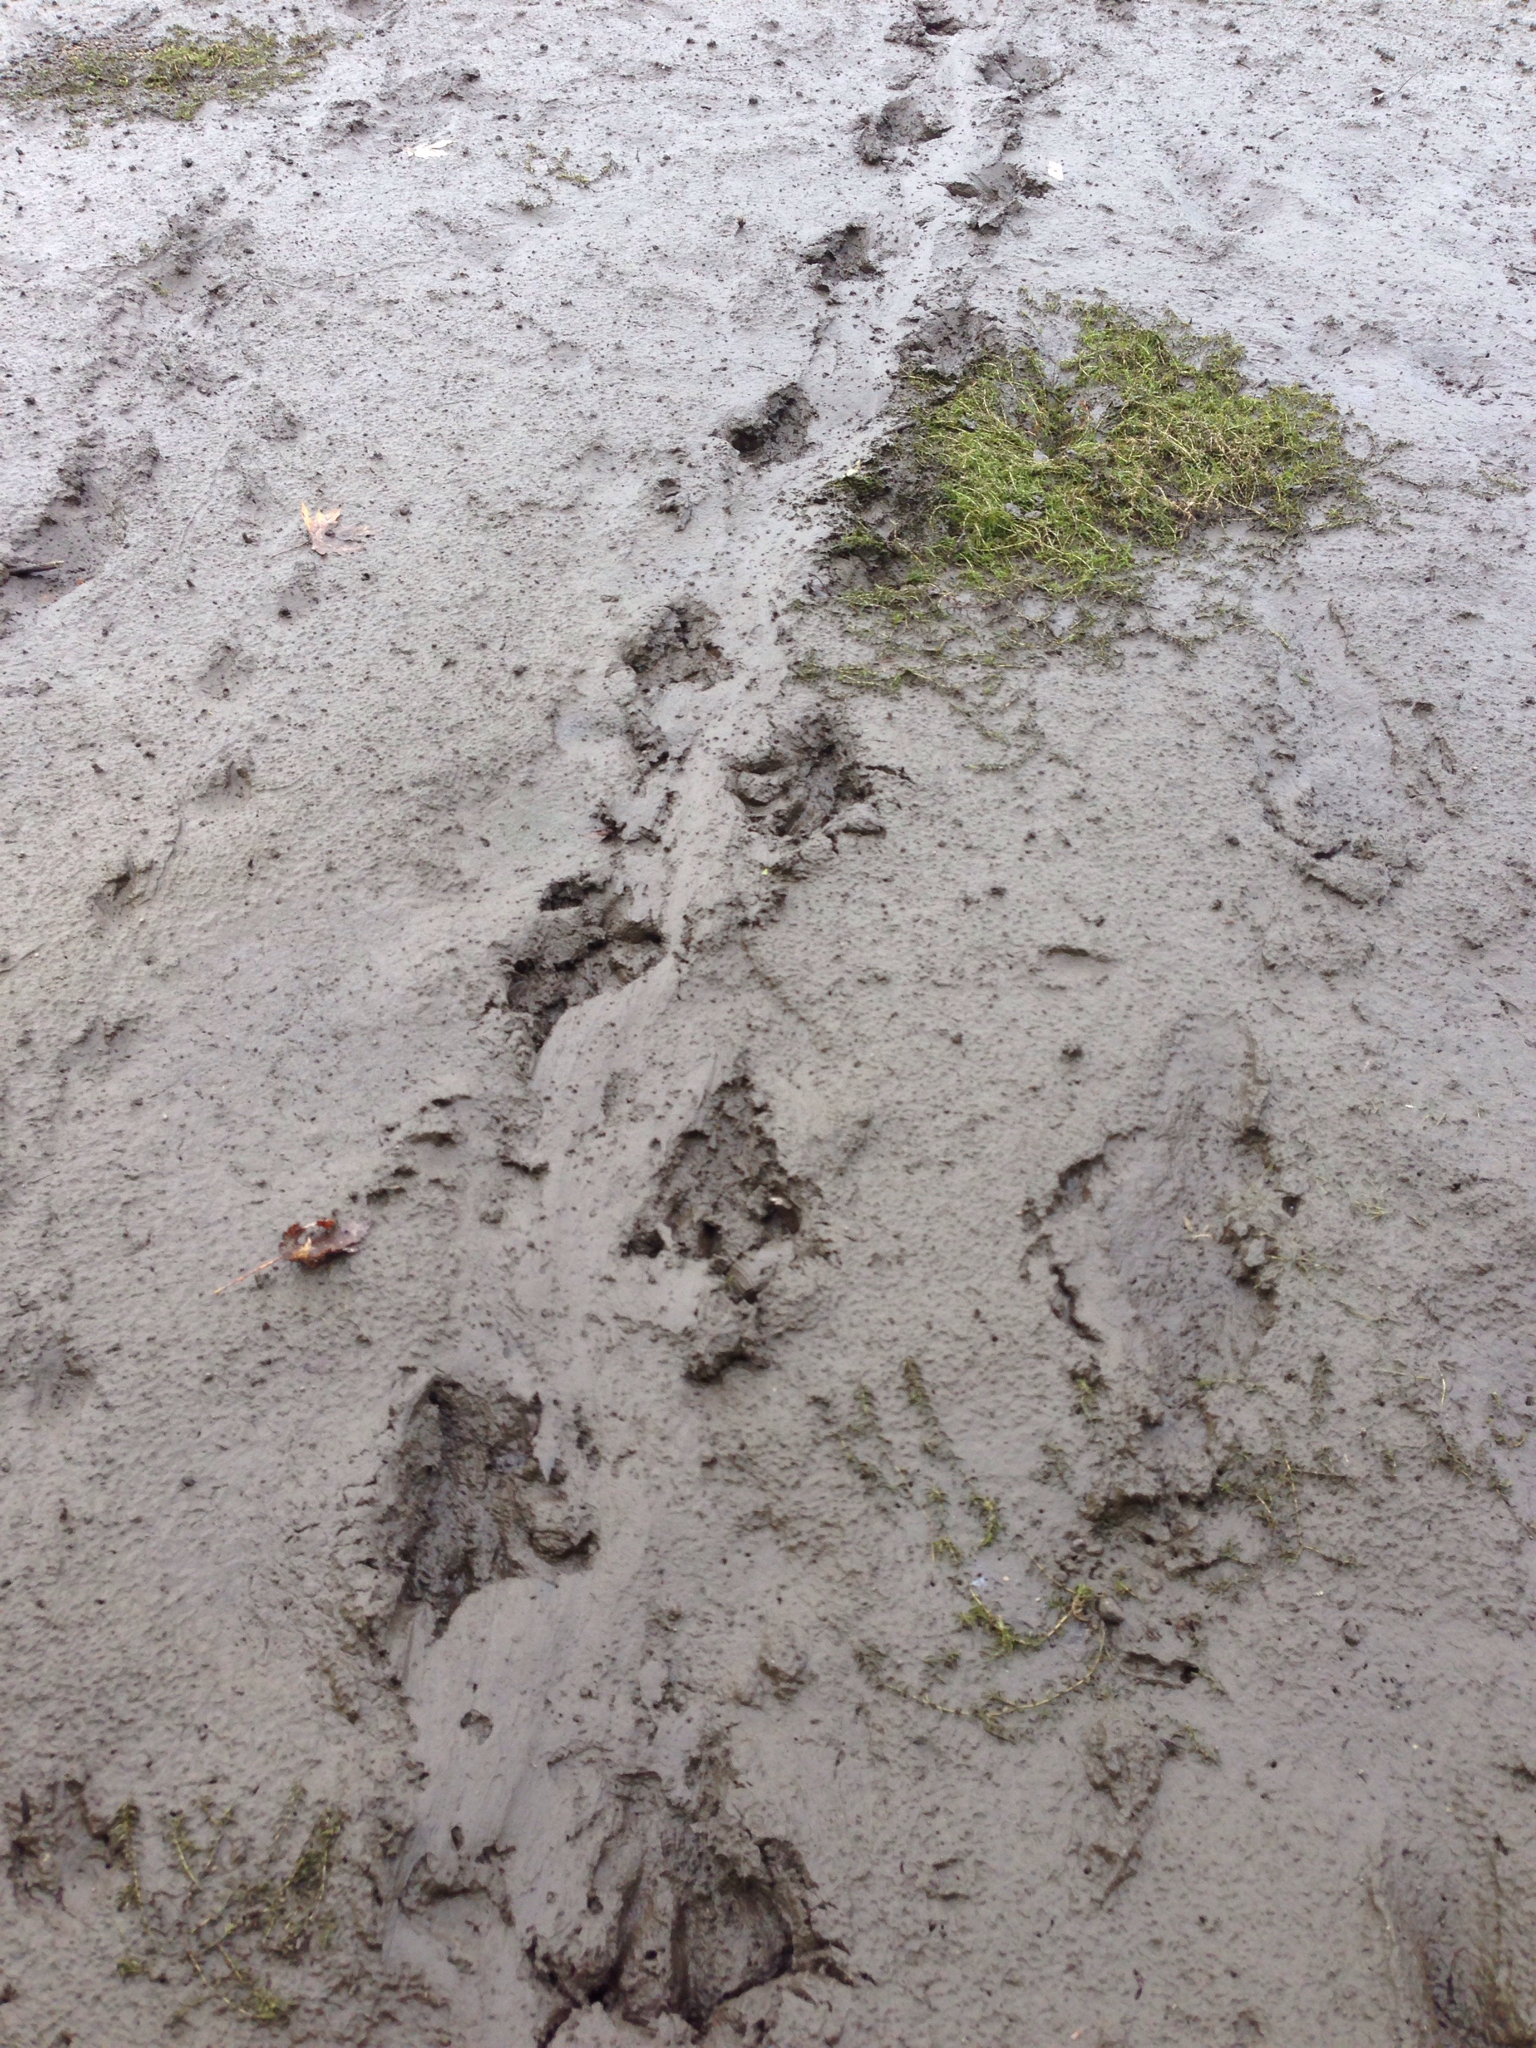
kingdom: Animalia
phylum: Chordata
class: Mammalia
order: Rodentia
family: Castoridae
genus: Castor
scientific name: Castor canadensis
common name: American beaver
